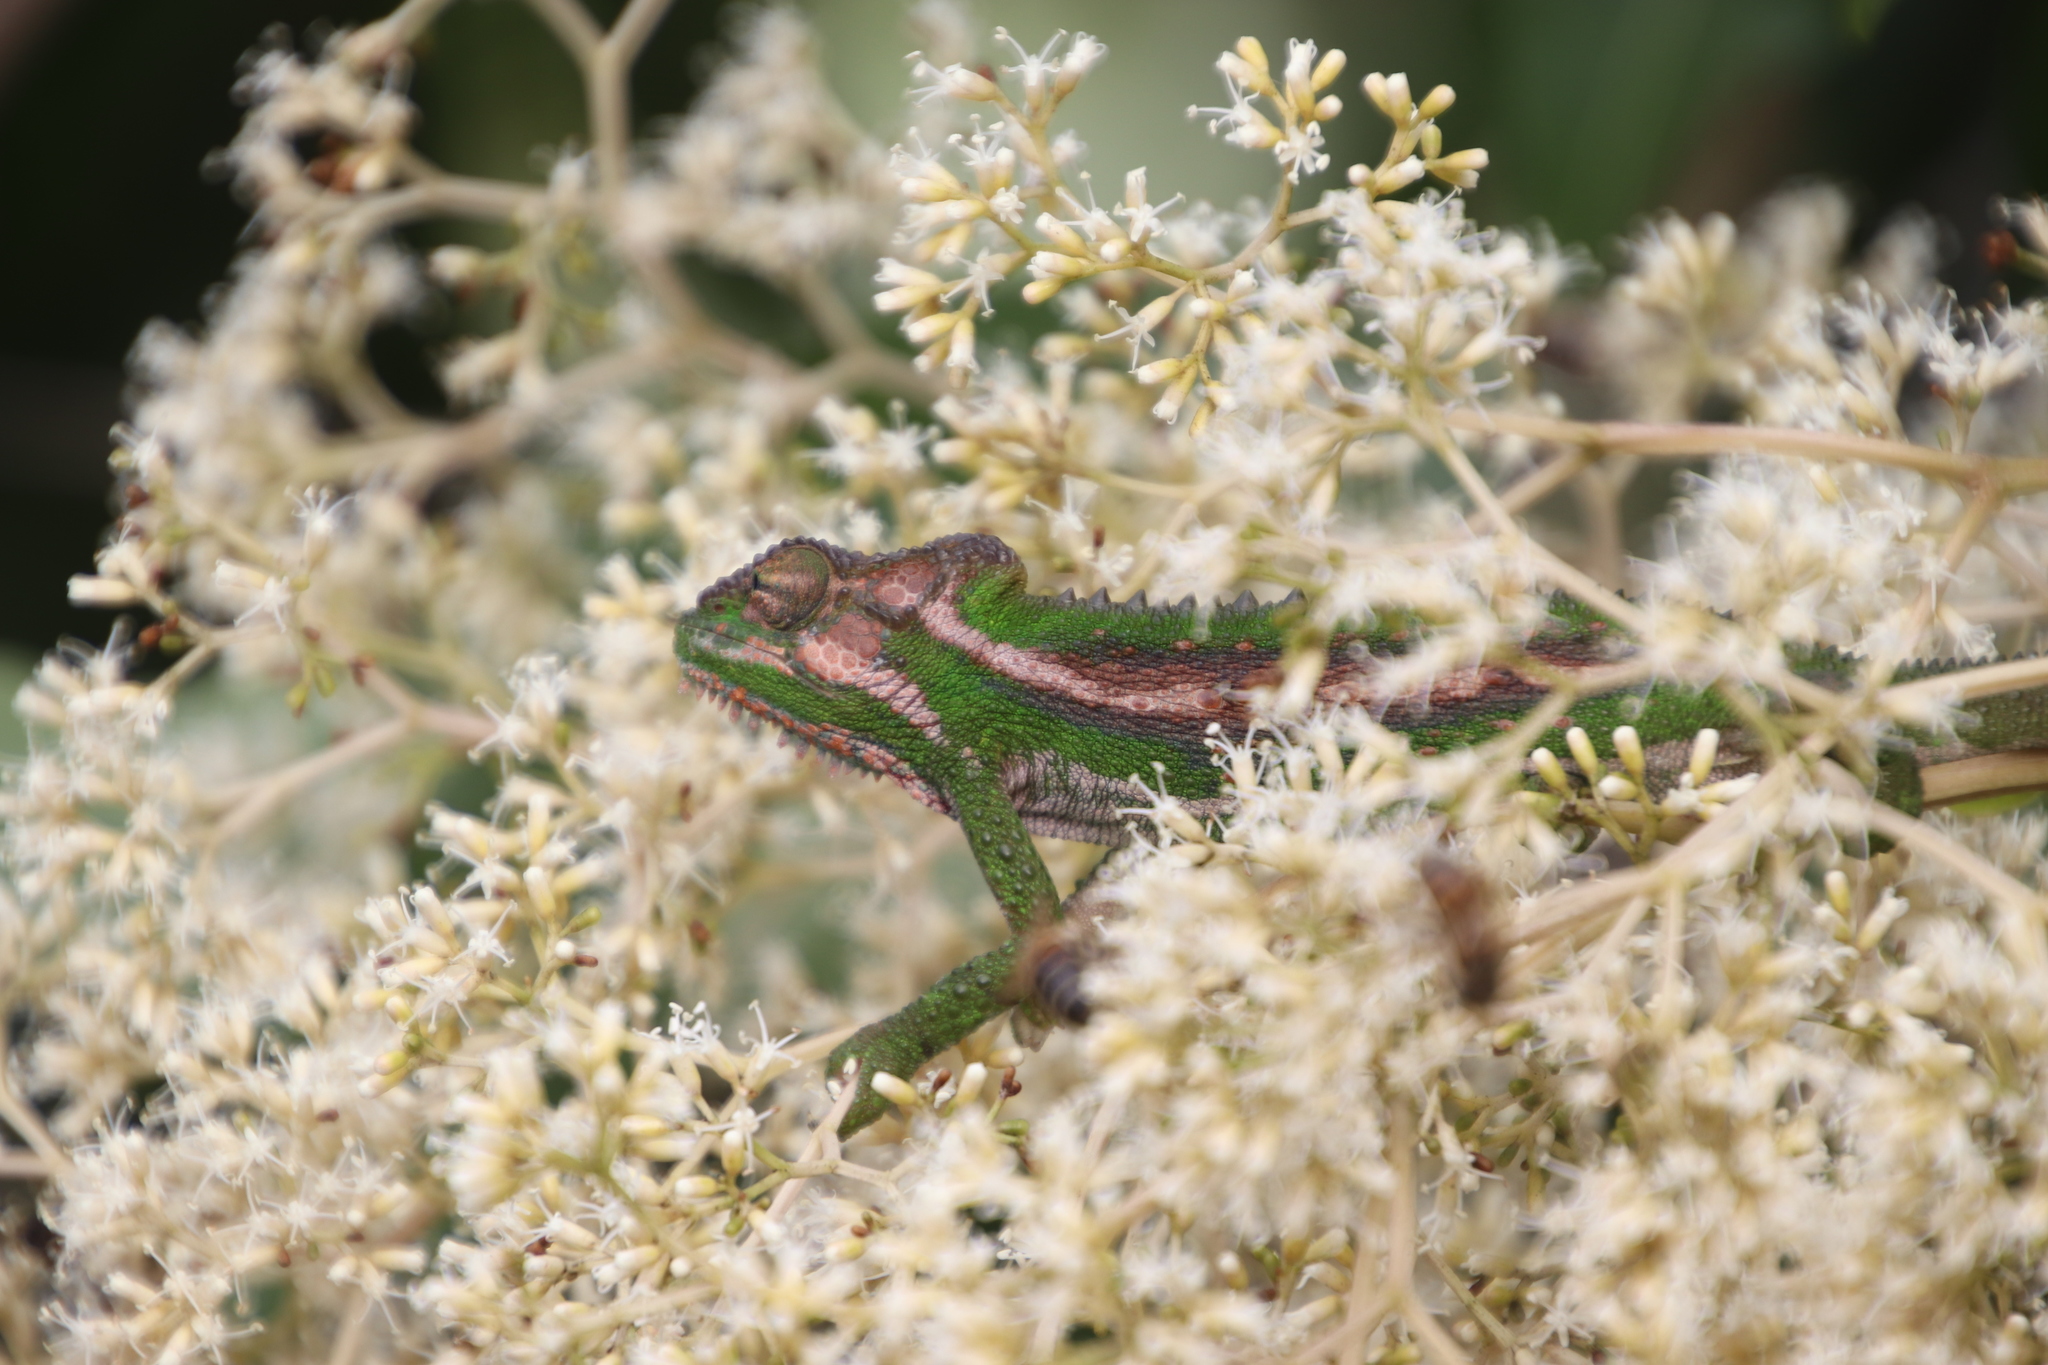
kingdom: Animalia
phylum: Chordata
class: Squamata
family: Chamaeleonidae
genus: Bradypodion
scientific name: Bradypodion pumilum
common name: Cape dwarf chameleon
